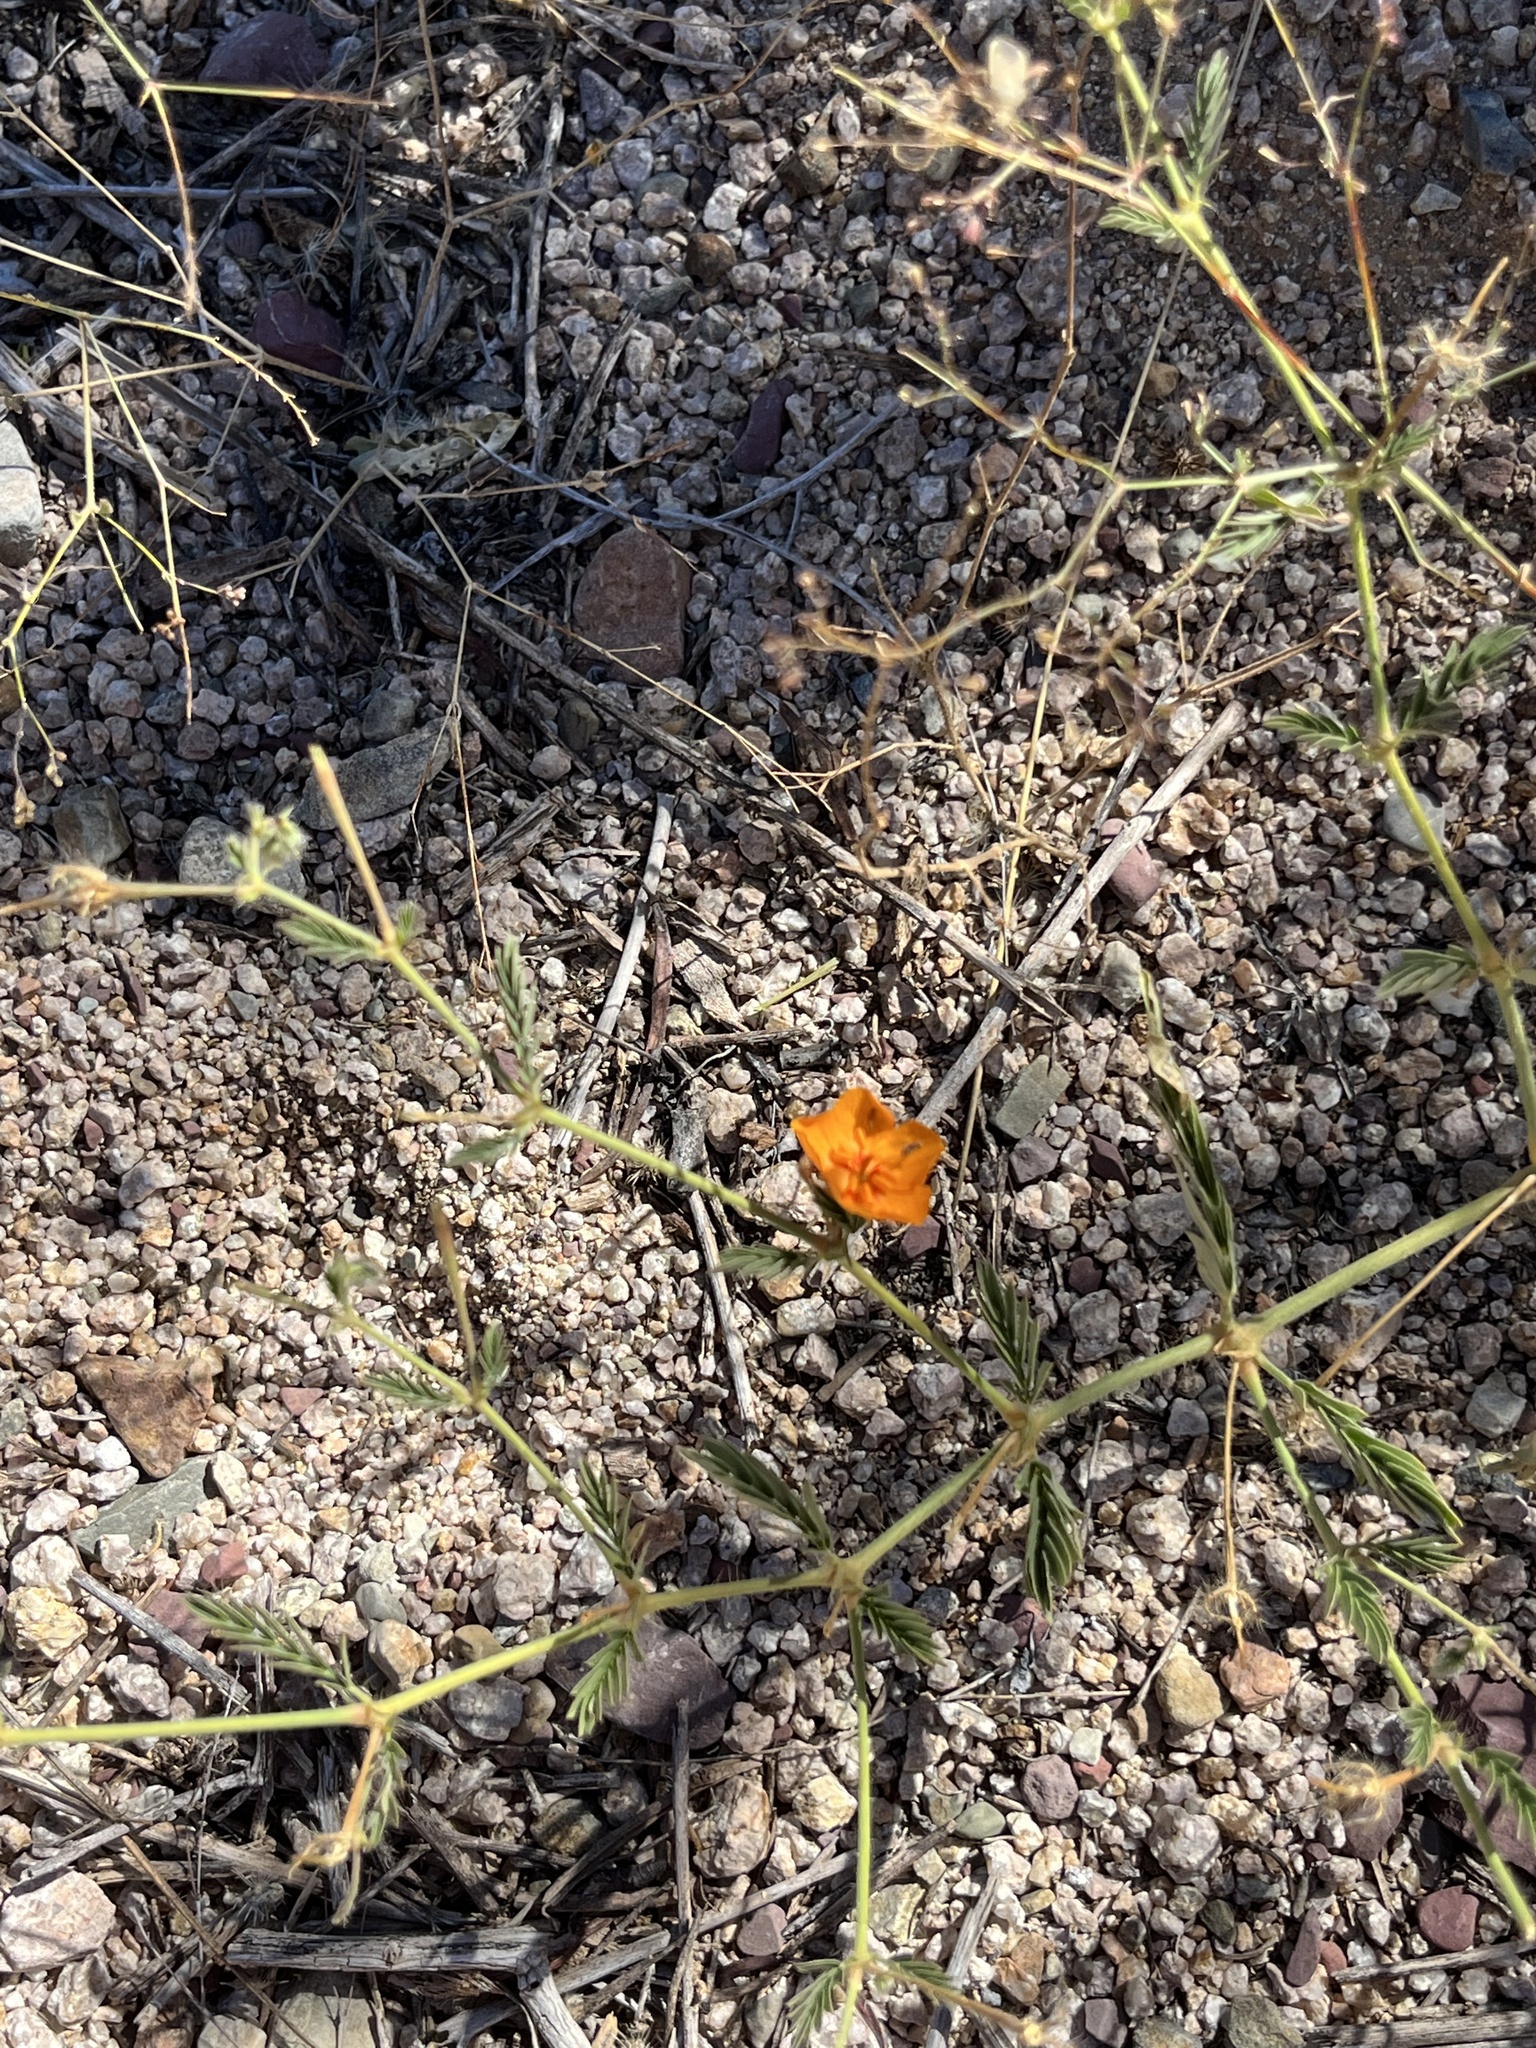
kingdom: Plantae
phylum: Tracheophyta
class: Magnoliopsida
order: Zygophyllales
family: Zygophyllaceae
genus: Kallstroemia
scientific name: Kallstroemia grandiflora
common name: Arizona-poppy
